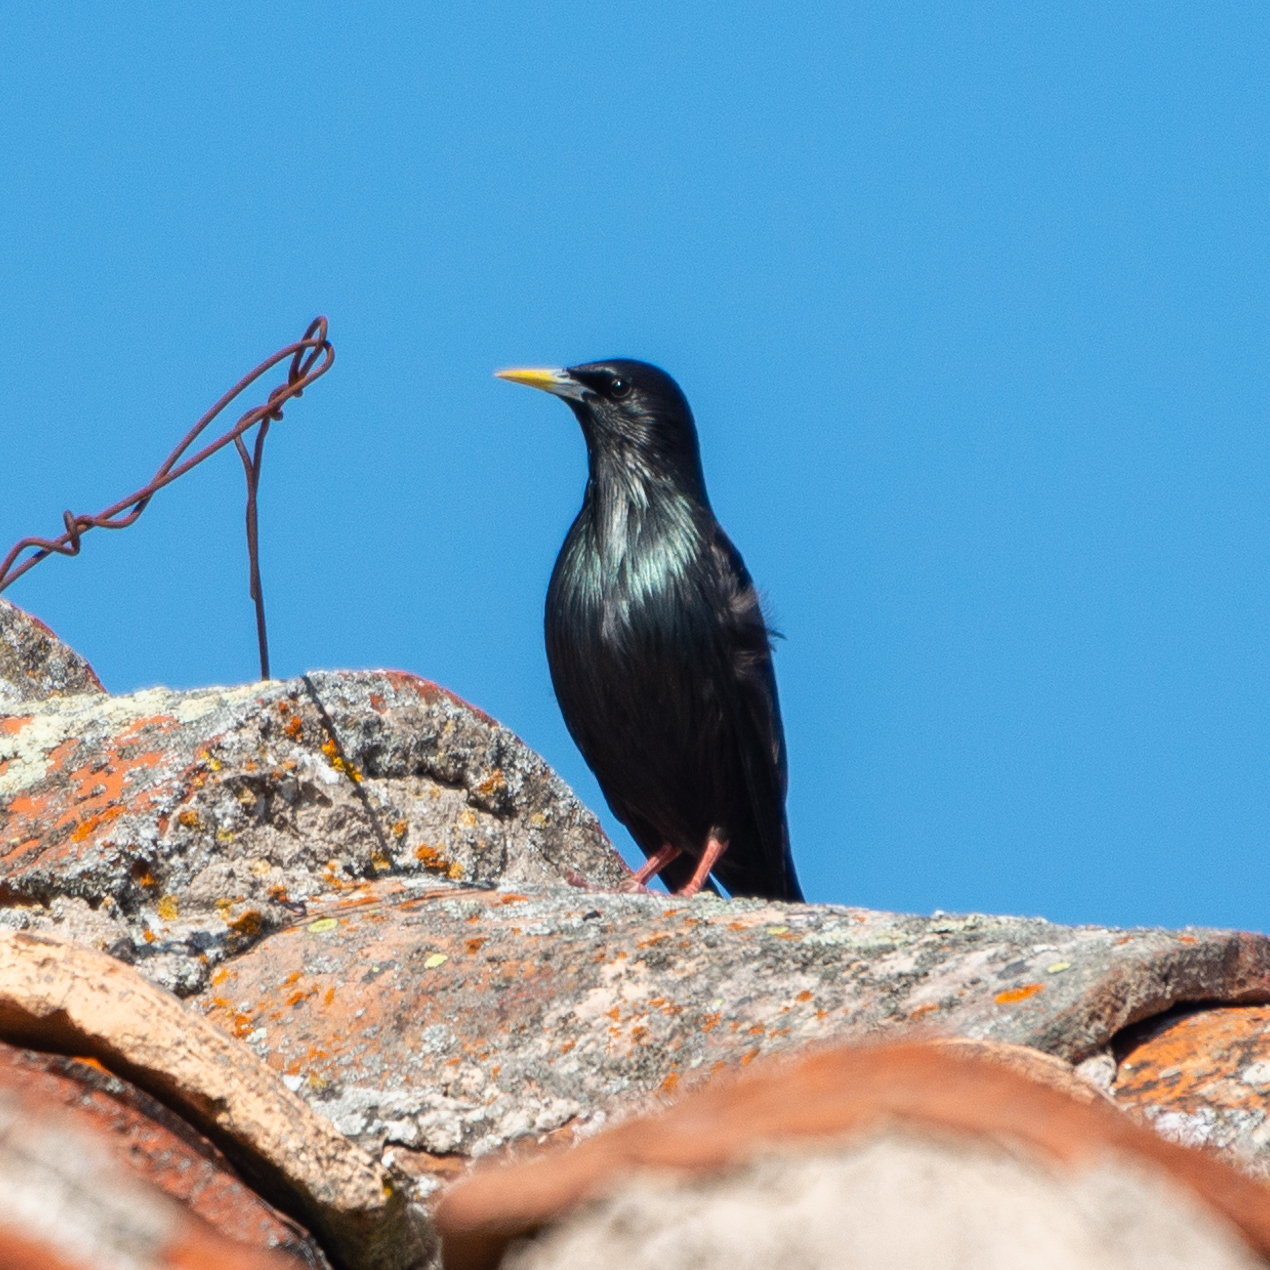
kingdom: Animalia
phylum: Chordata
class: Aves
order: Passeriformes
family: Sturnidae
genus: Sturnus
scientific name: Sturnus unicolor
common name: Spotless starling
